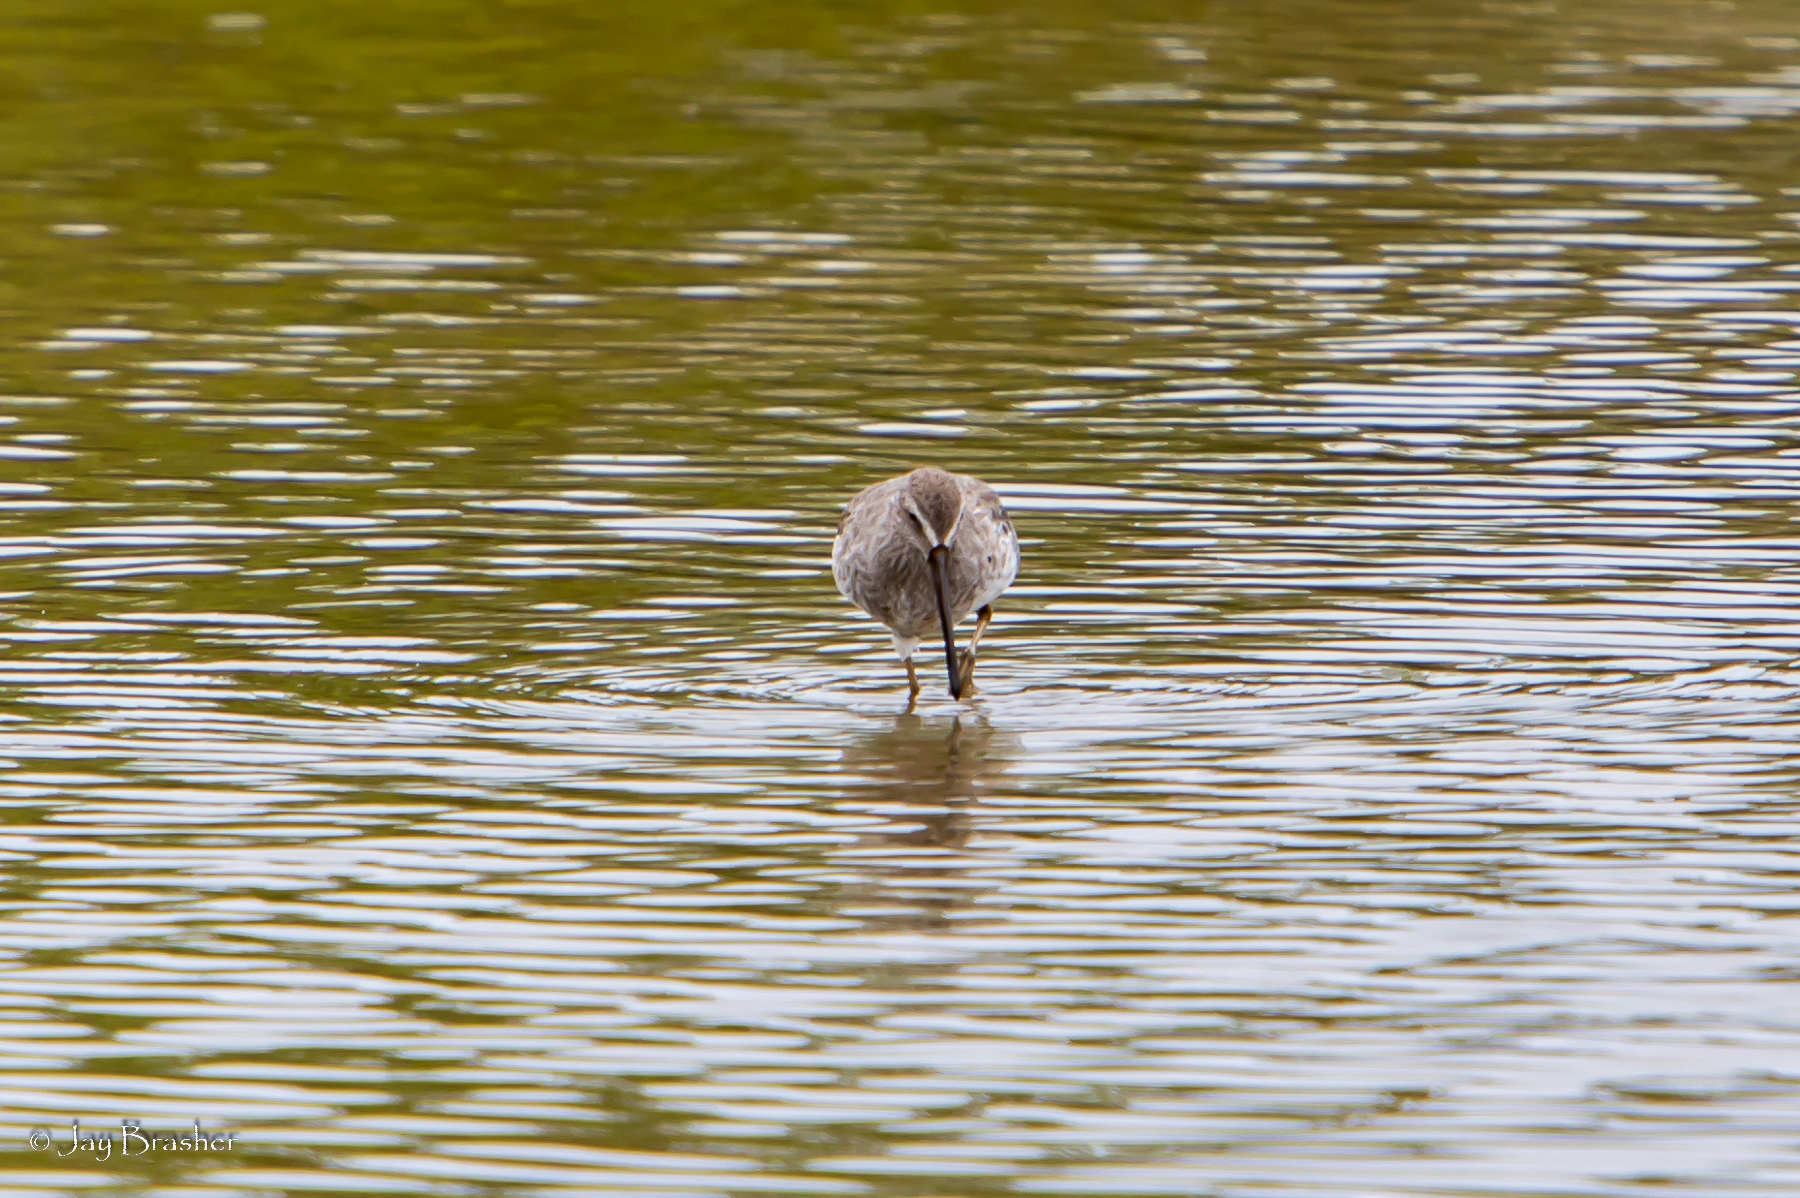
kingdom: Animalia
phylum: Chordata
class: Aves
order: Charadriiformes
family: Scolopacidae
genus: Limnodromus
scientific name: Limnodromus griseus
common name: Short-billed dowitcher
